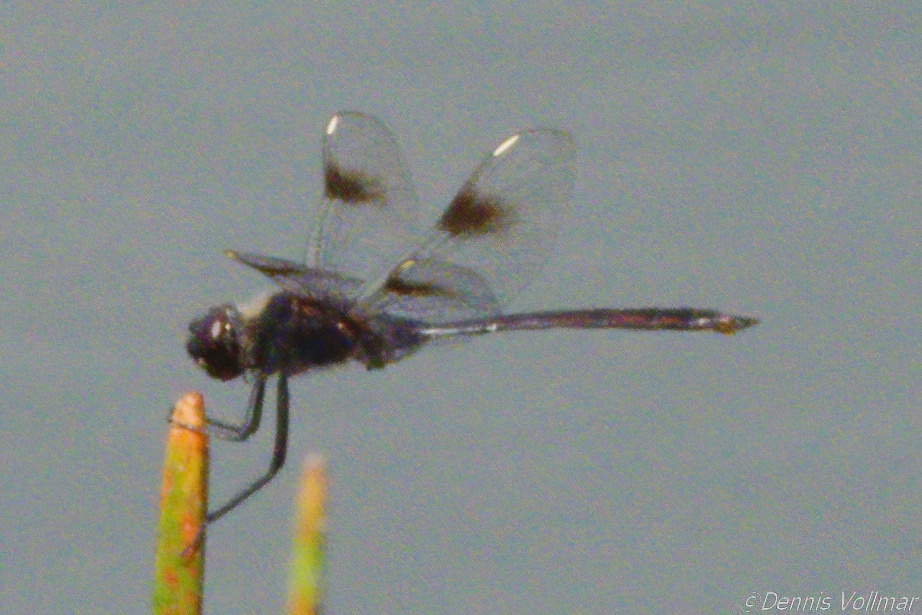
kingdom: Animalia
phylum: Arthropoda
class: Insecta
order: Odonata
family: Libellulidae
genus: Brachymesia
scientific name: Brachymesia gravida
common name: Four-spotted pennant
